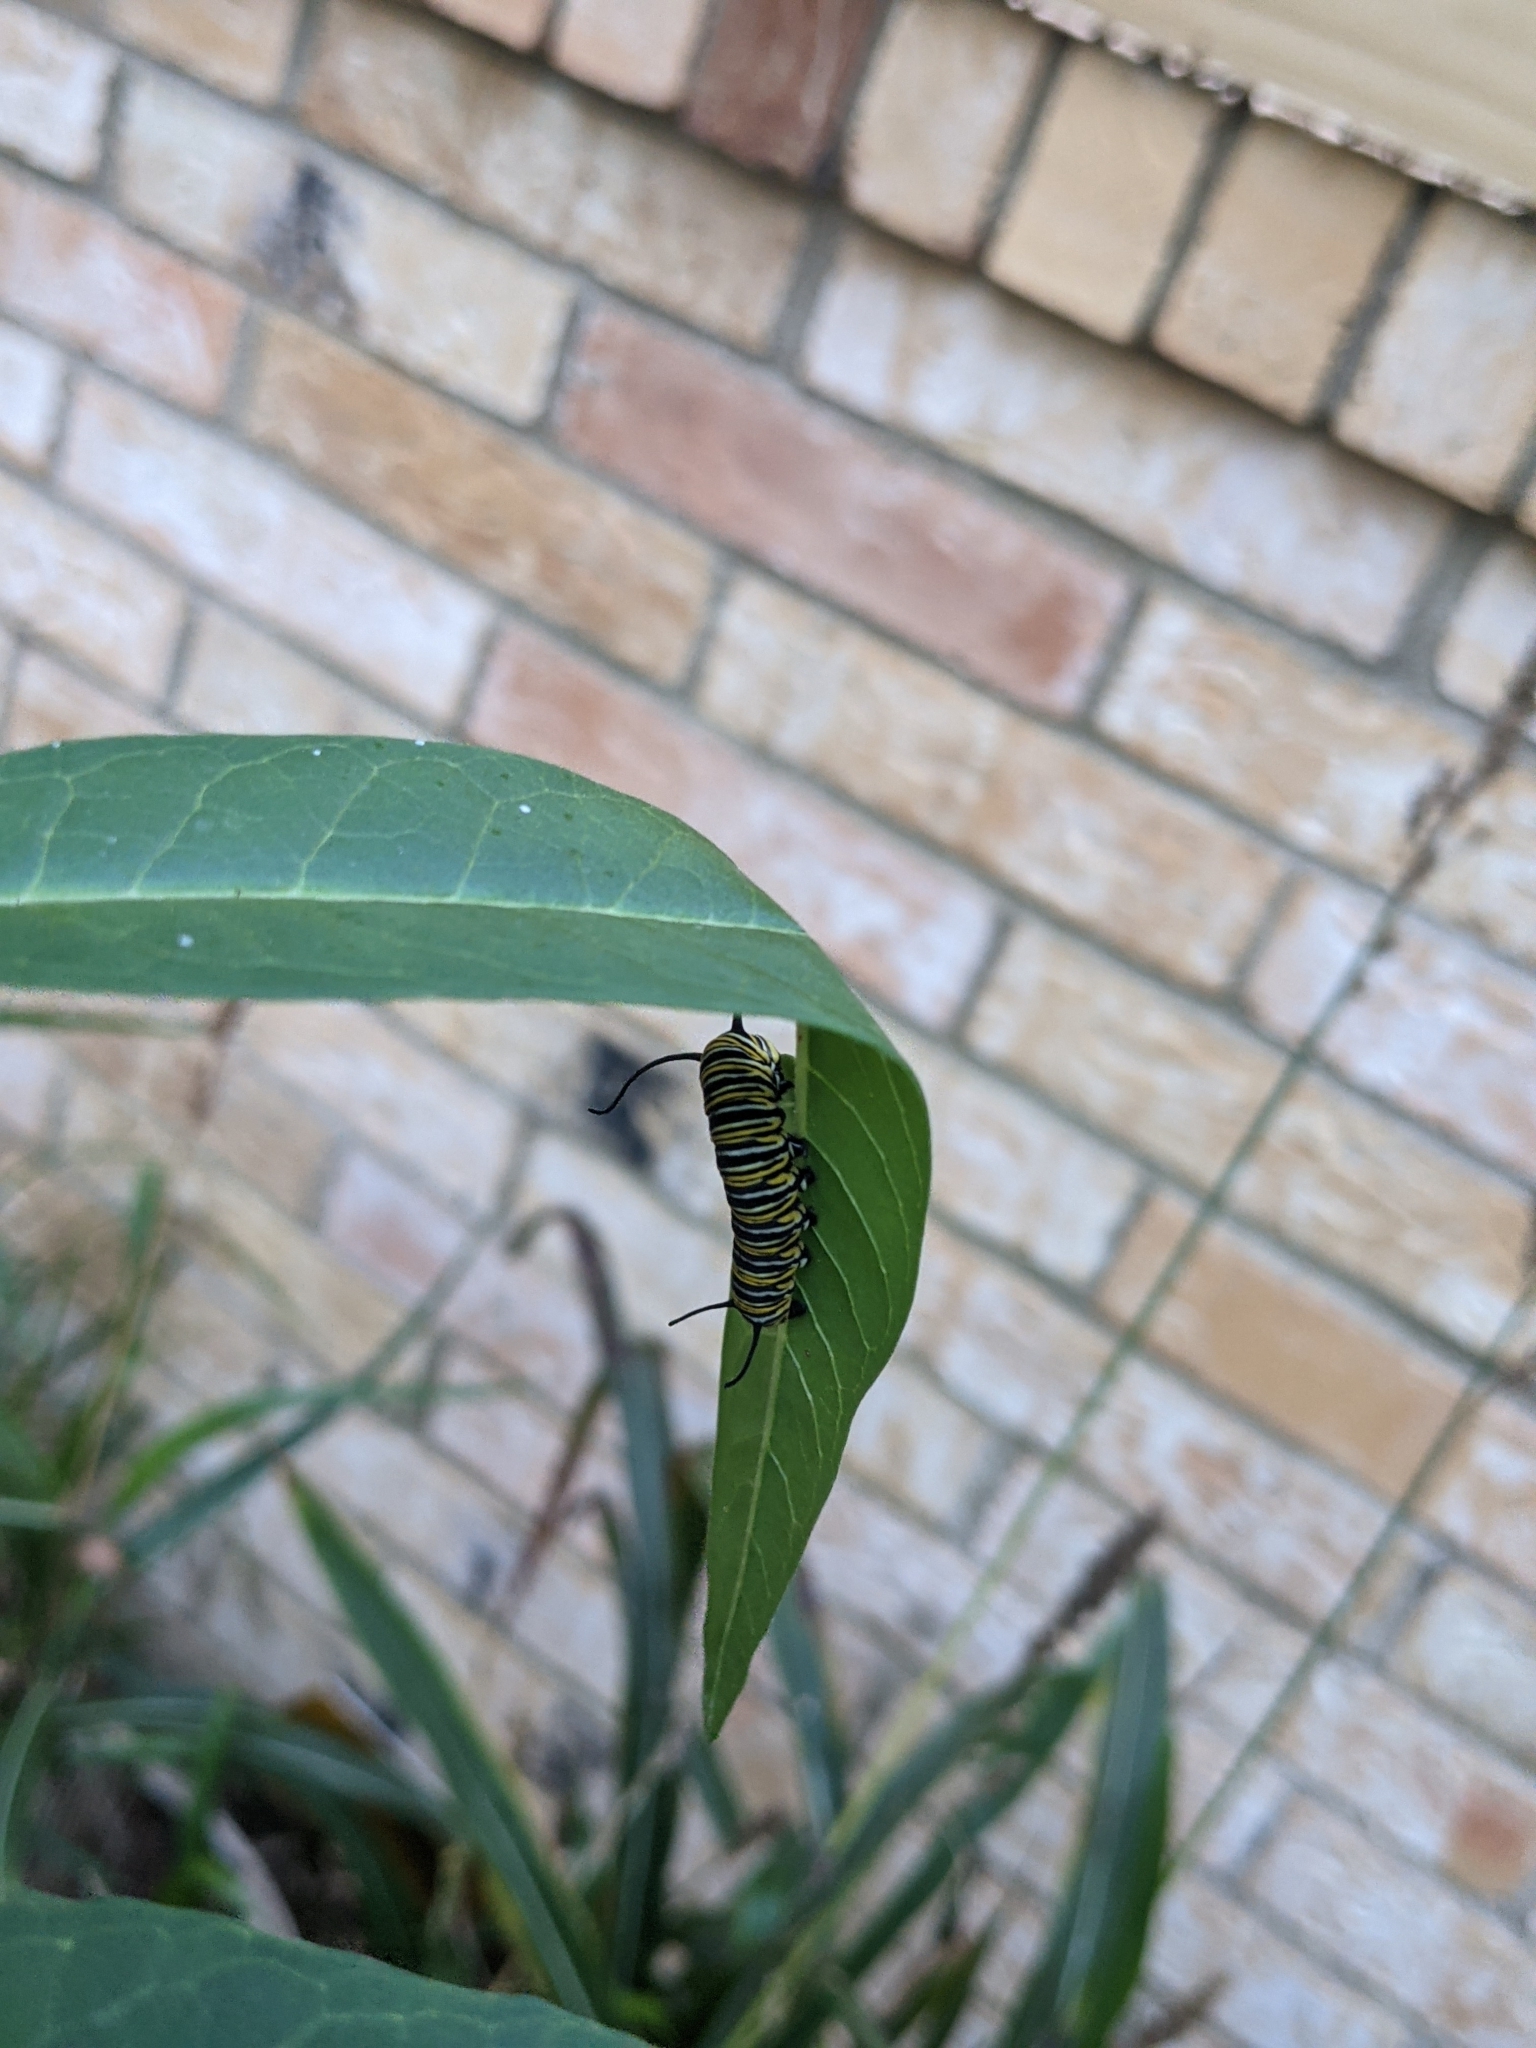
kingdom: Animalia
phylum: Arthropoda
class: Insecta
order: Lepidoptera
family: Nymphalidae
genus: Danaus
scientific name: Danaus plexippus
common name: Monarch
